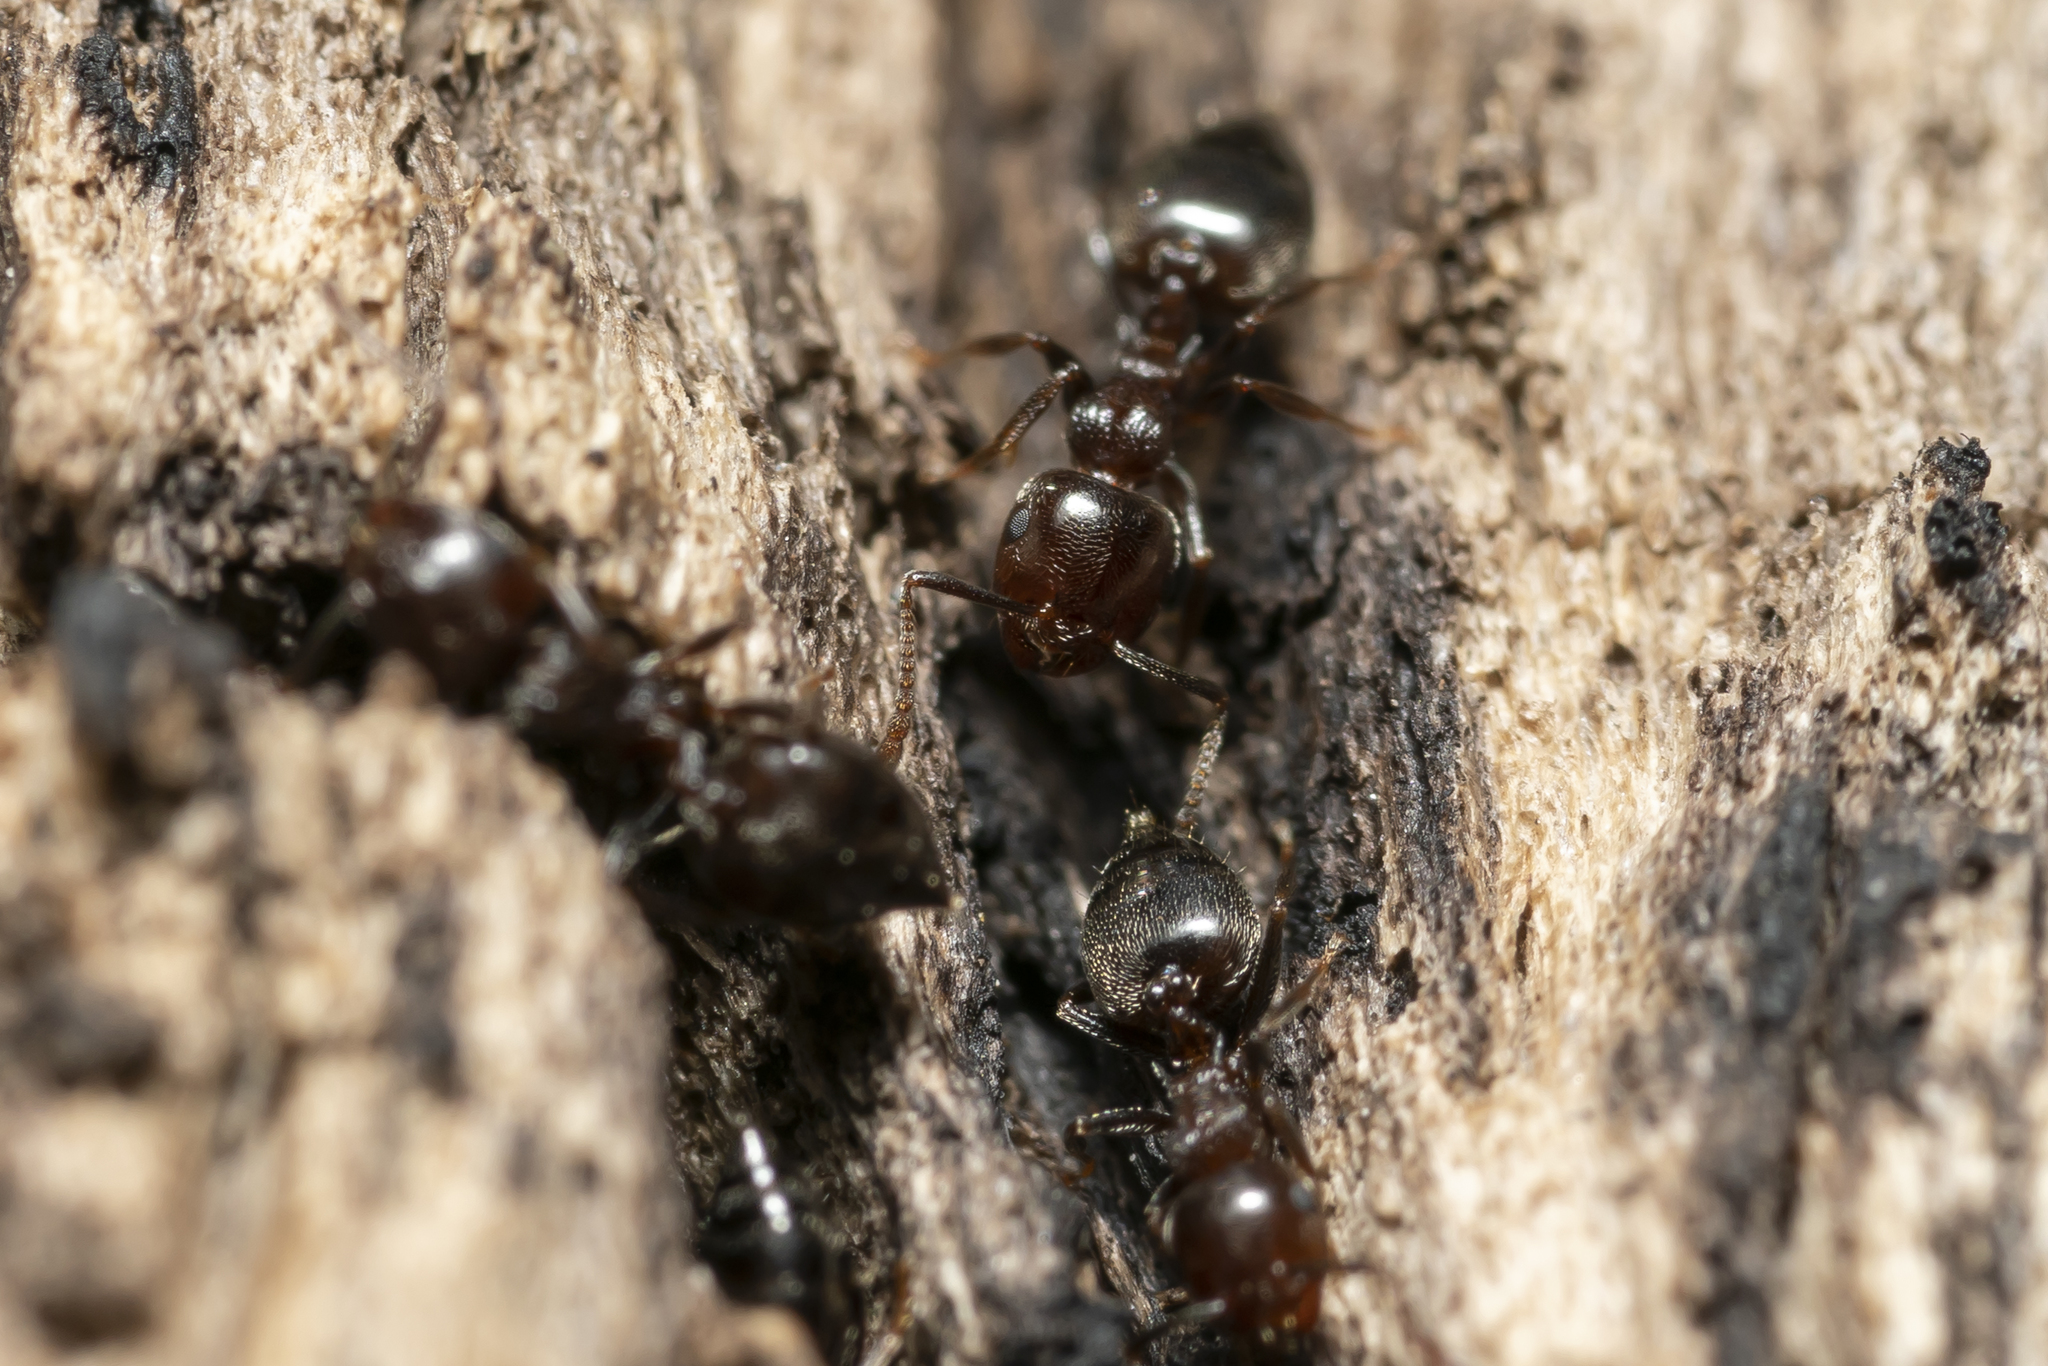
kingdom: Animalia
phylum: Arthropoda
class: Insecta
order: Hymenoptera
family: Formicidae
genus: Crematogaster
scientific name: Crematogaster schmidti
